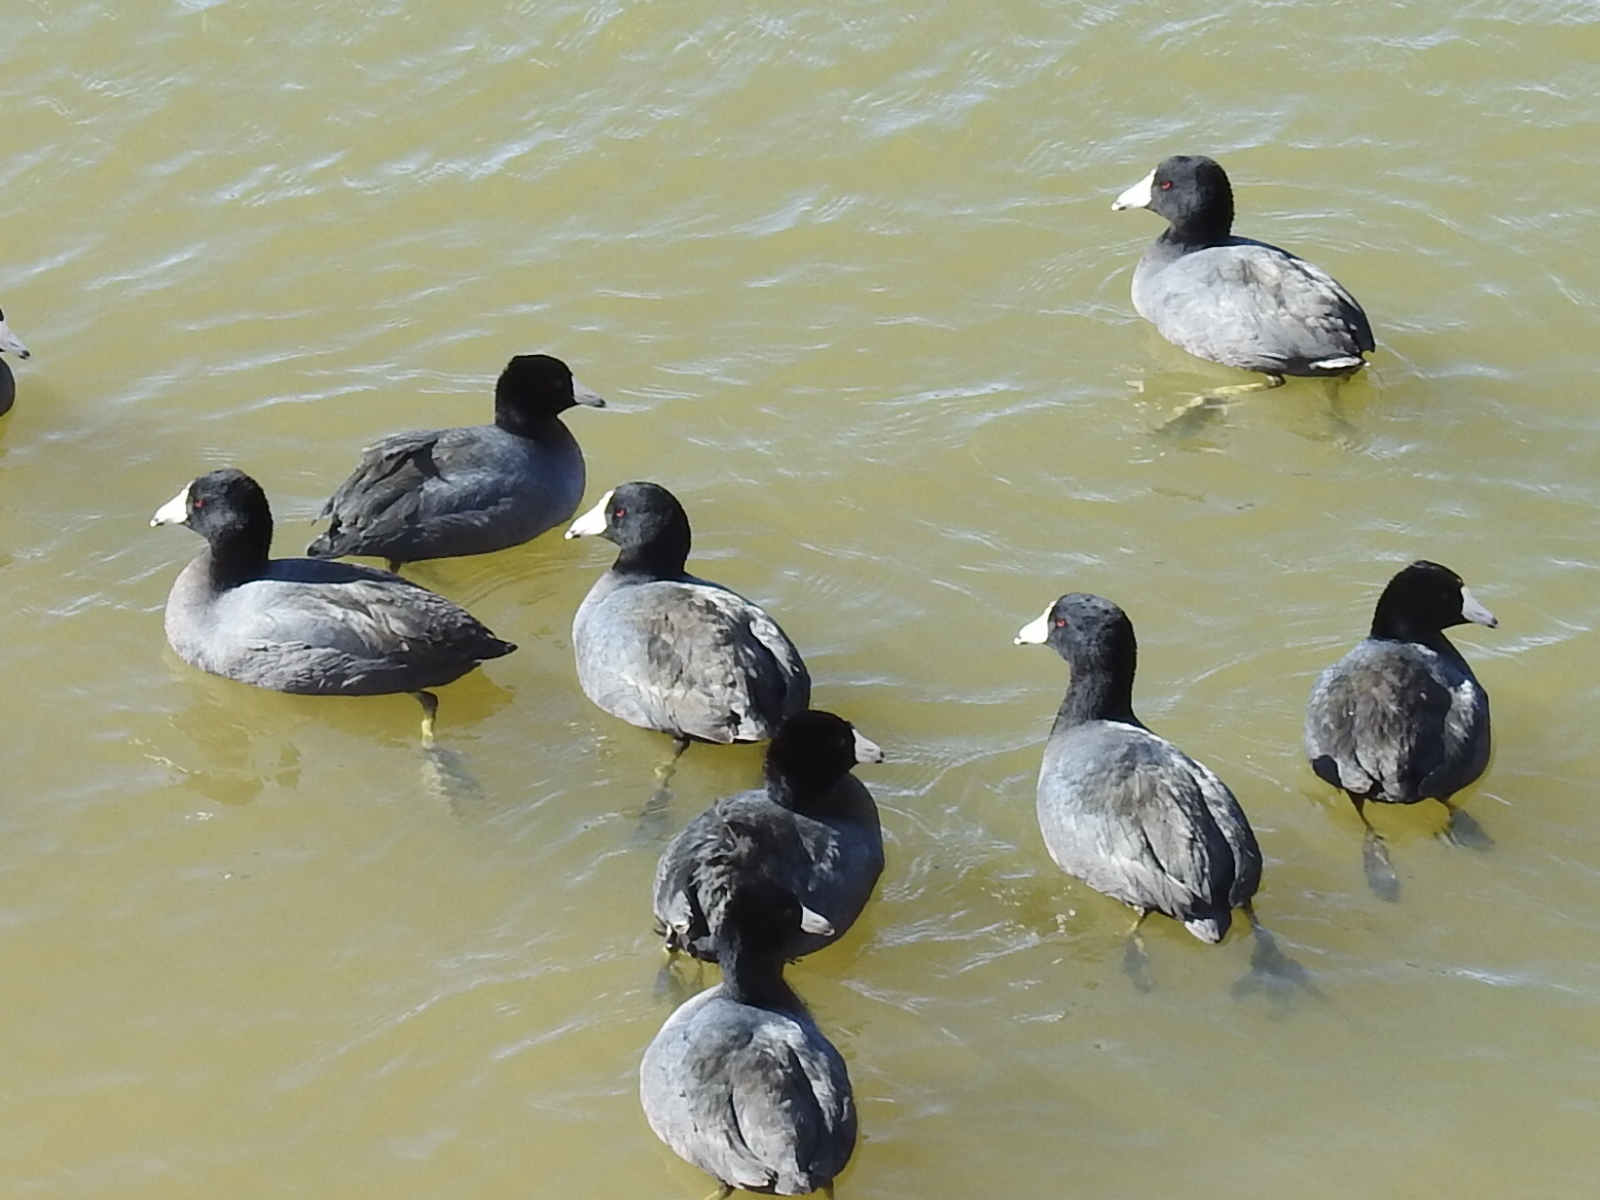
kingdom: Animalia
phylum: Chordata
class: Aves
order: Gruiformes
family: Rallidae
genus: Fulica
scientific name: Fulica americana
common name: American coot
